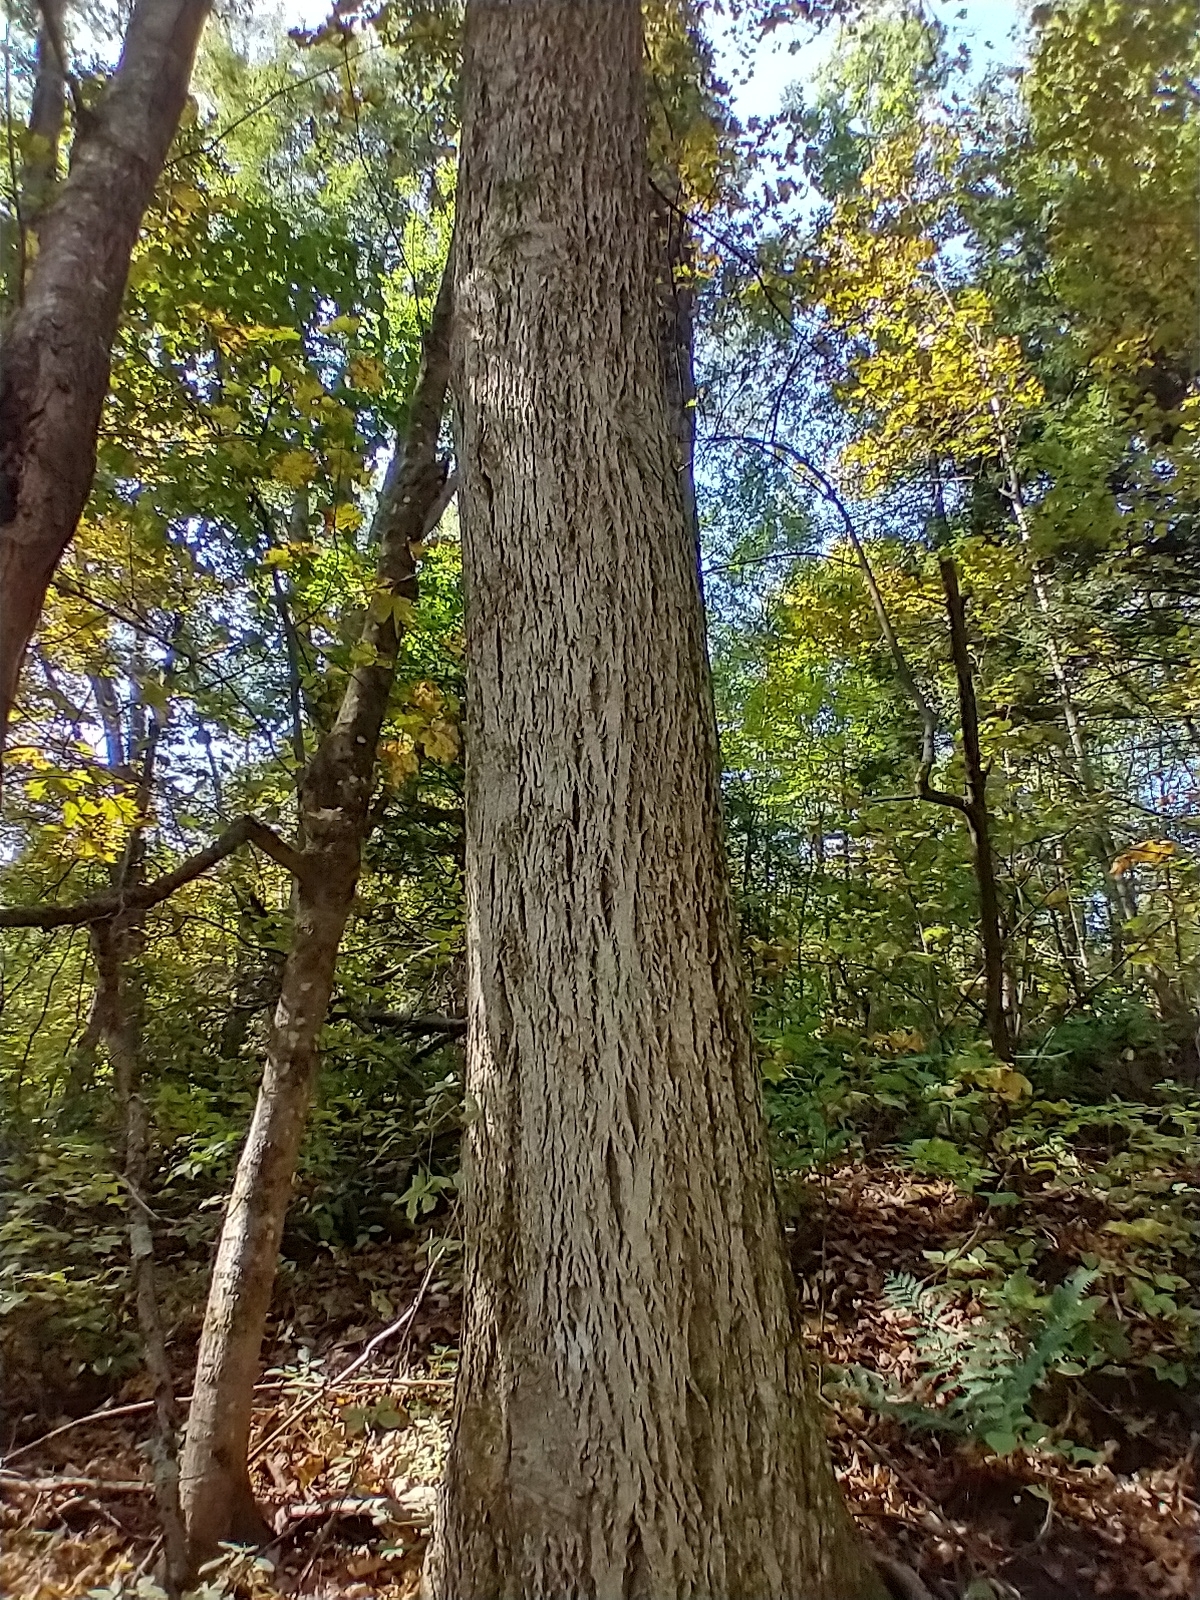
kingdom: Plantae
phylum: Tracheophyta
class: Magnoliopsida
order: Fagales
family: Juglandaceae
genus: Carya
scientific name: Carya cordiformis
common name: Bitternut hickory
